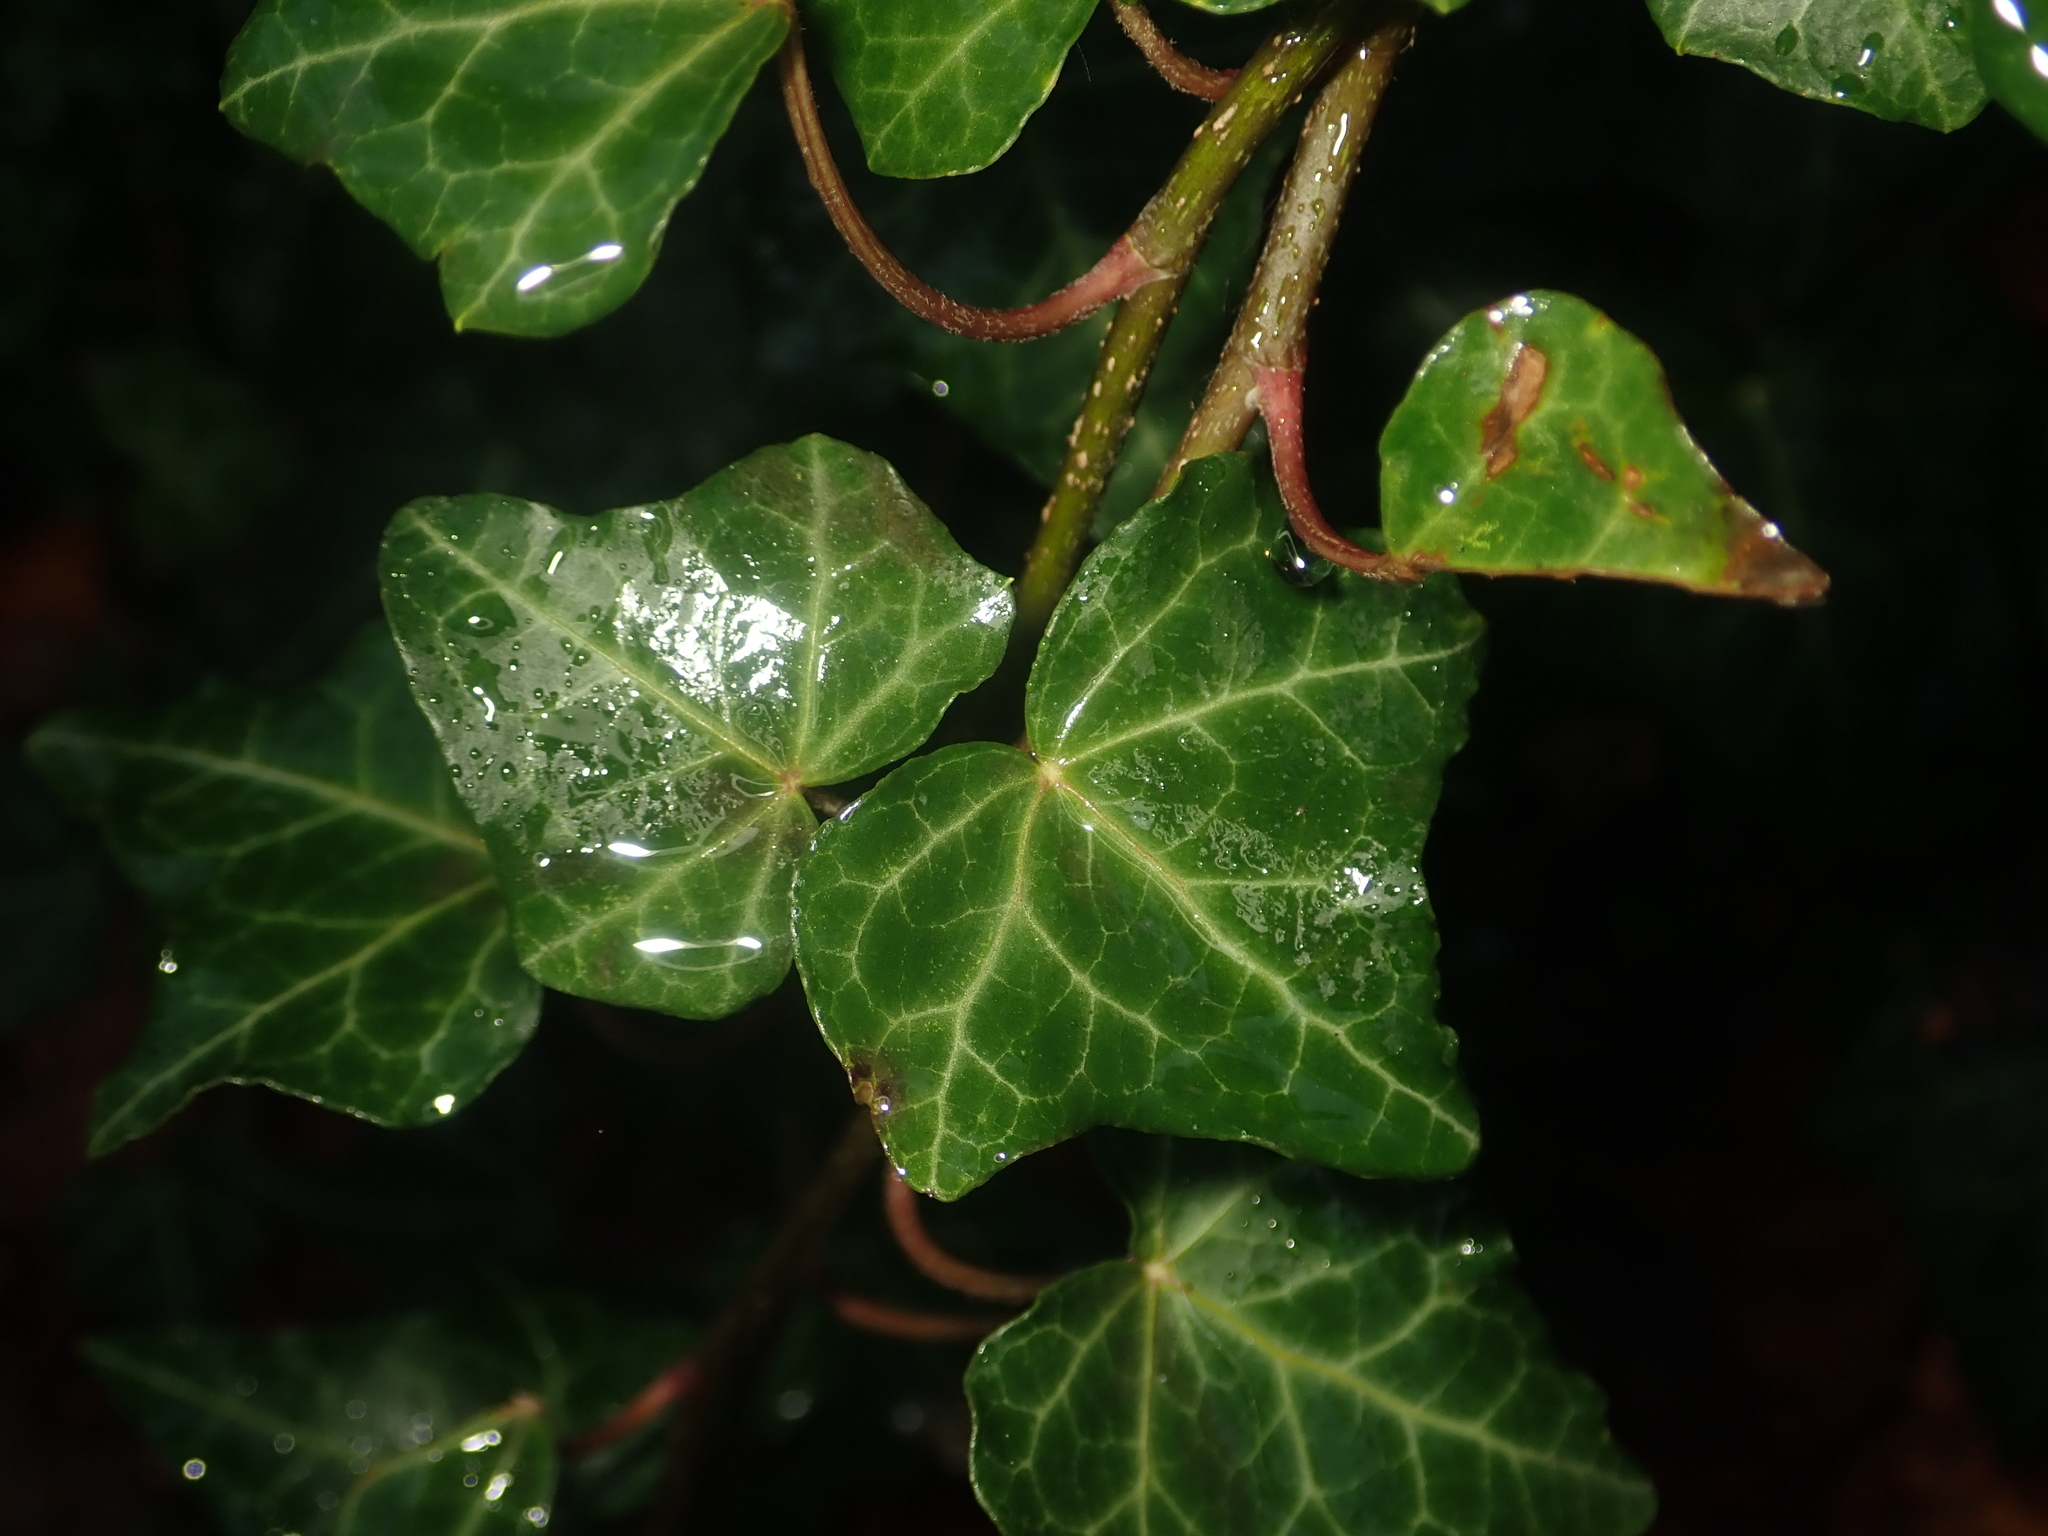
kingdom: Plantae
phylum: Tracheophyta
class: Magnoliopsida
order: Apiales
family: Araliaceae
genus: Hedera
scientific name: Hedera helix
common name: Ivy
